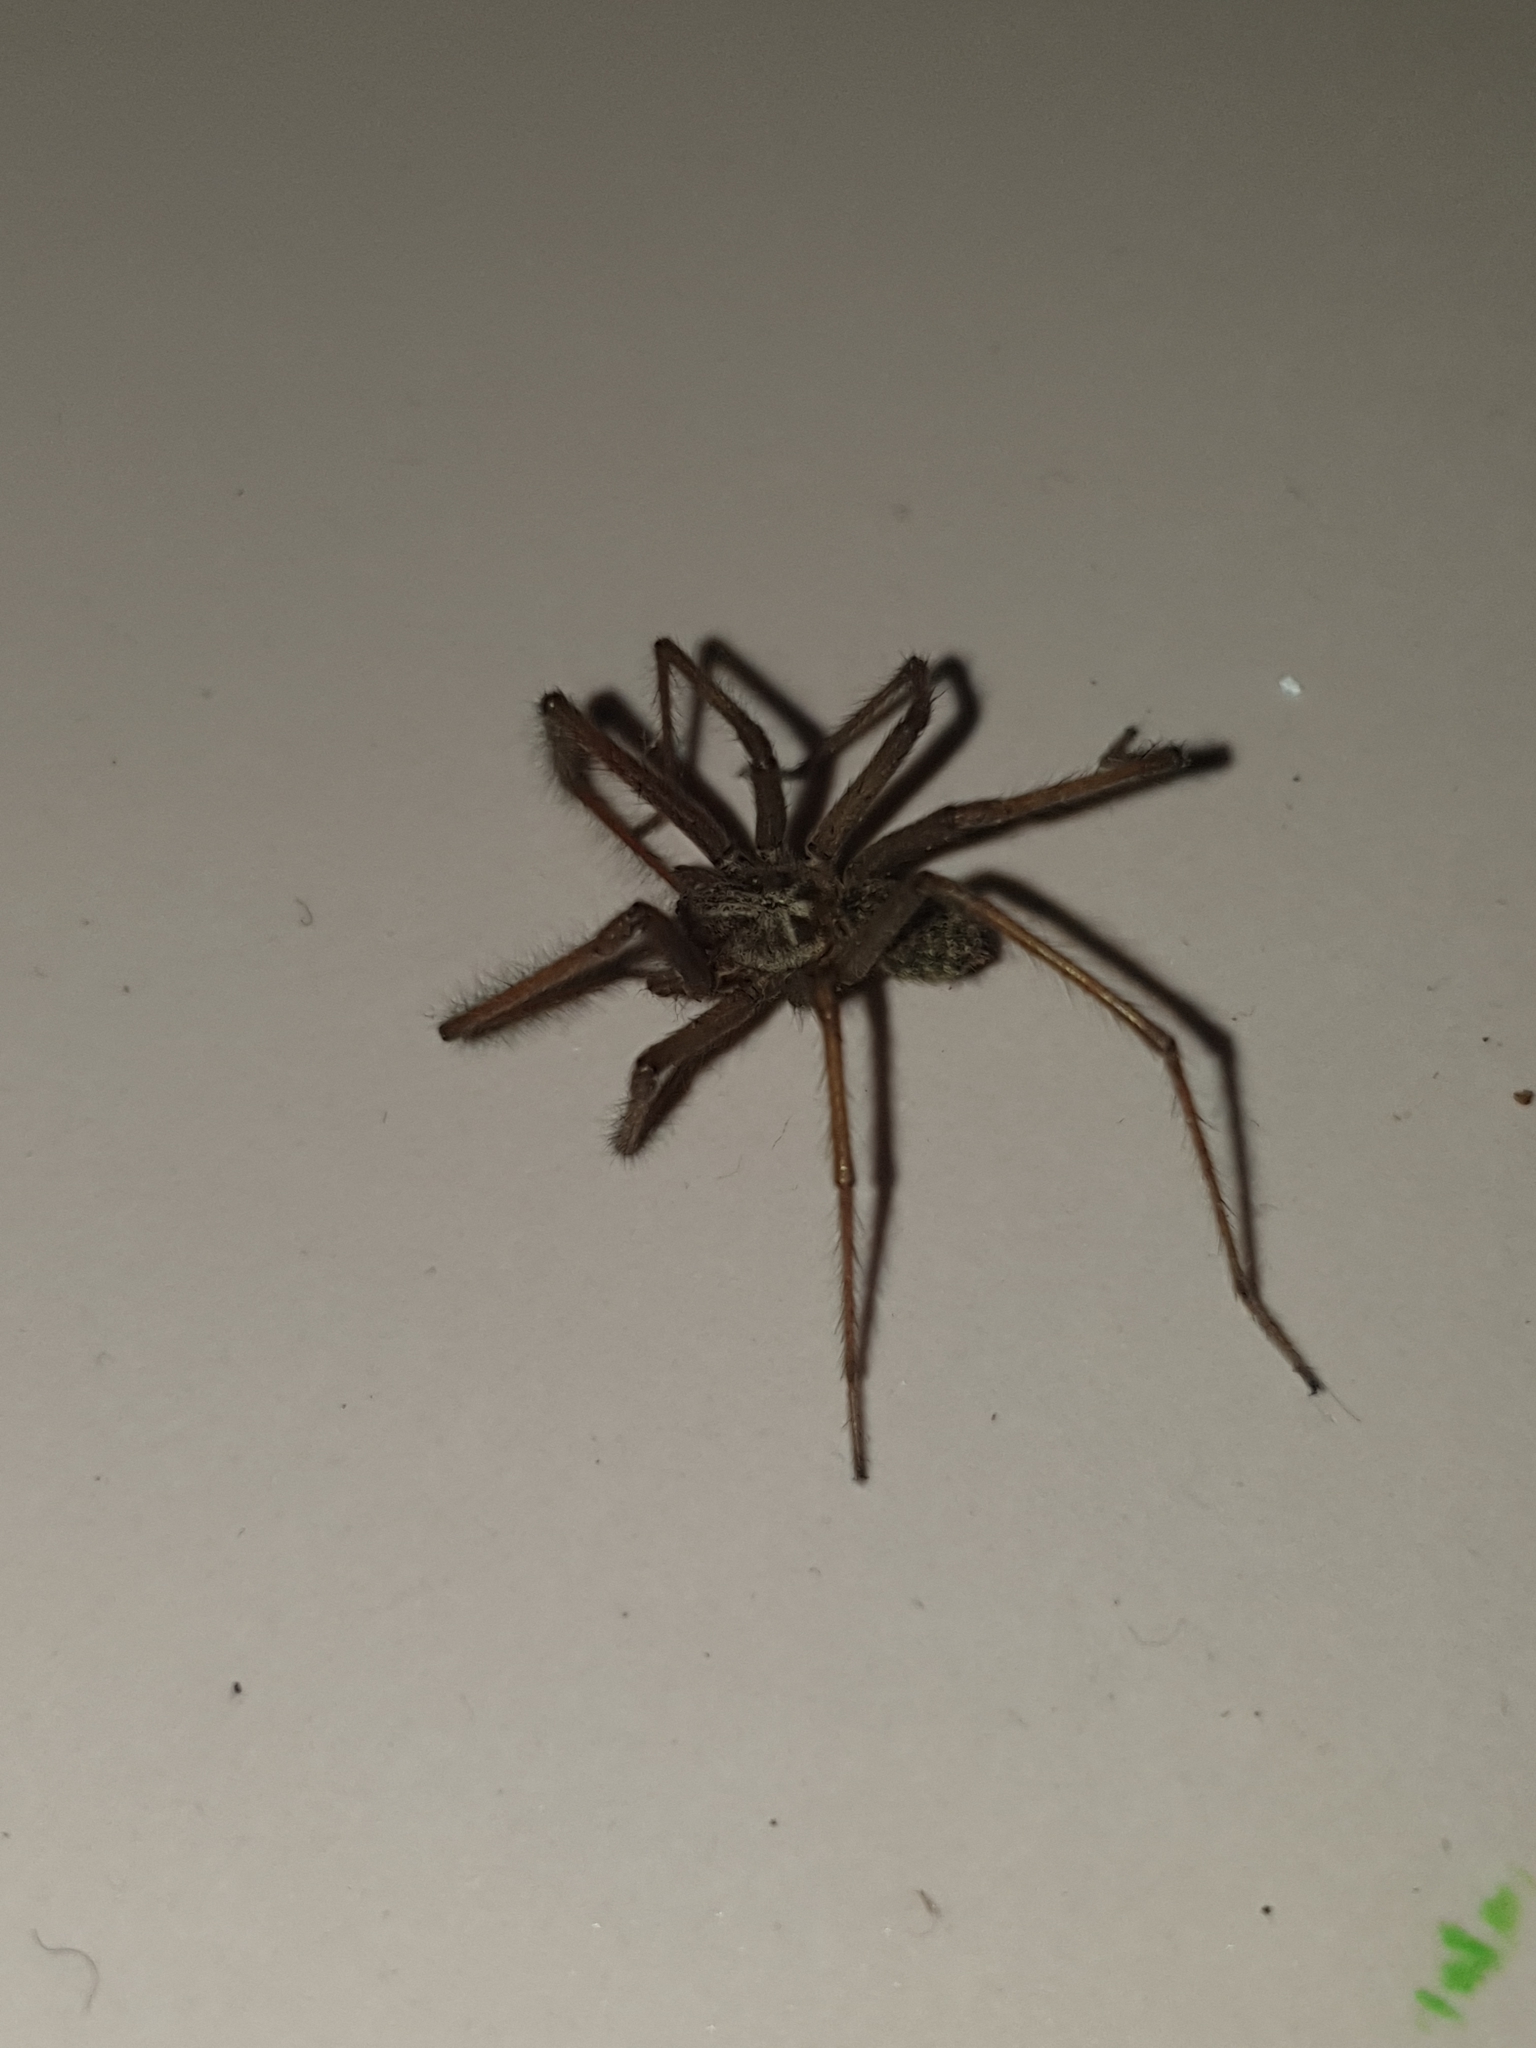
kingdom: Animalia
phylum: Arthropoda
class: Arachnida
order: Araneae
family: Agelenidae
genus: Eratigena
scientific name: Eratigena atrica
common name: Giant house spider
